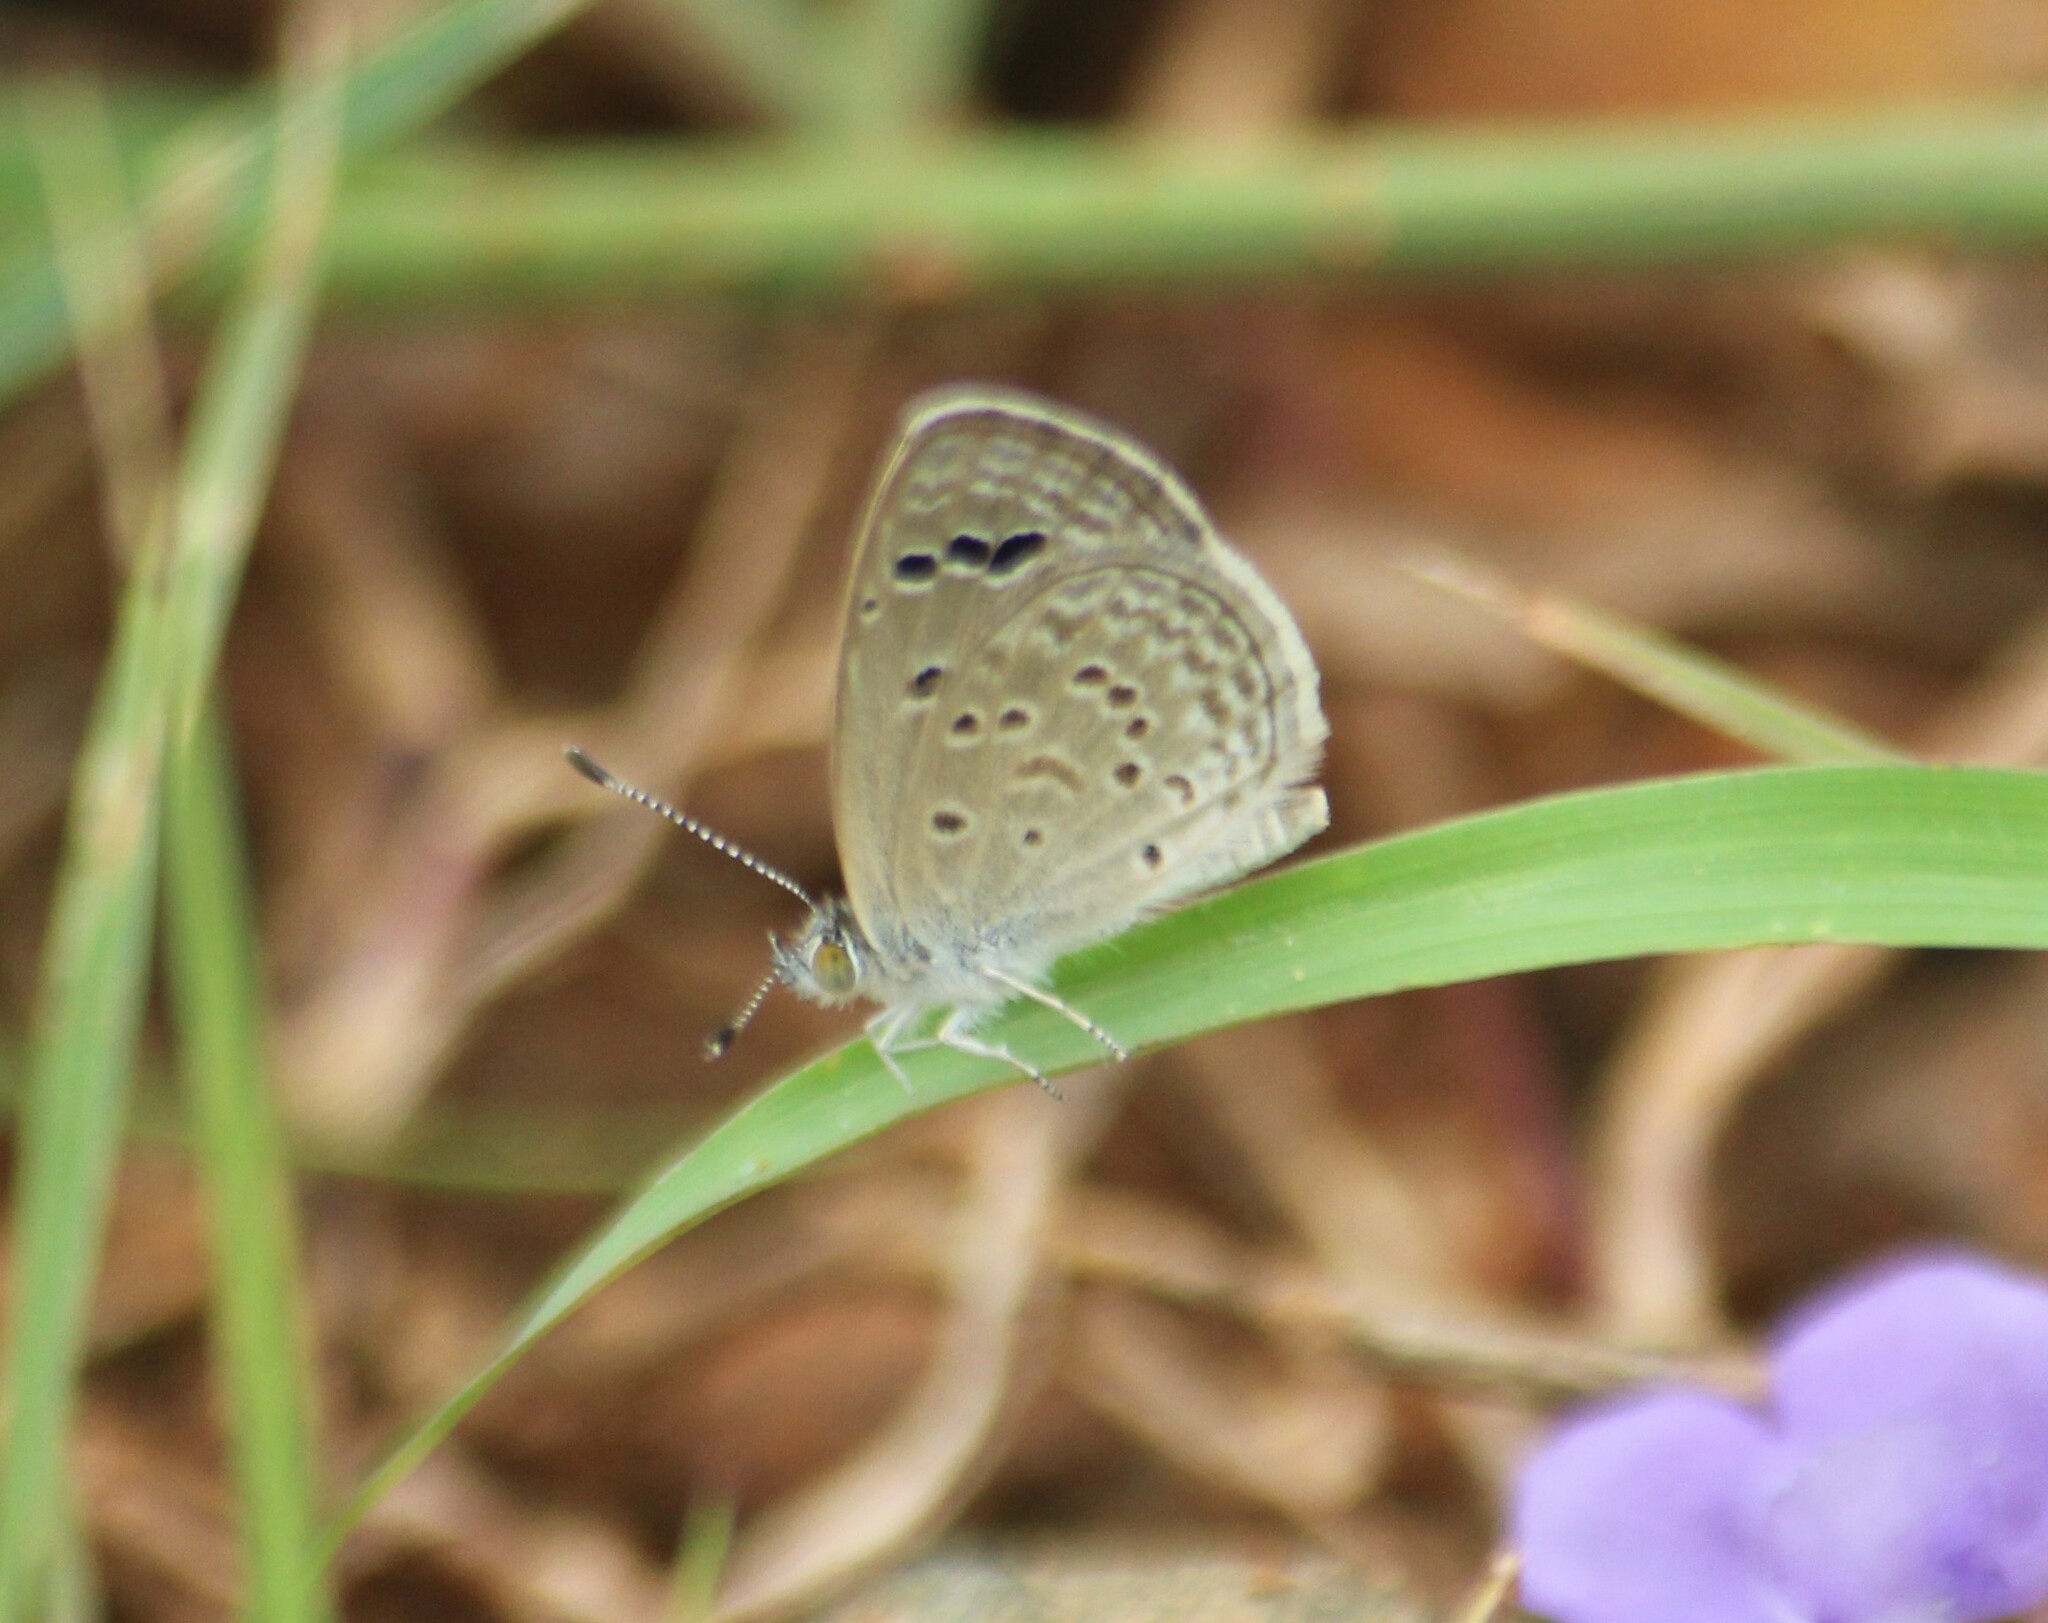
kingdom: Animalia
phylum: Arthropoda
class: Insecta
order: Lepidoptera
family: Lycaenidae
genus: Zizina
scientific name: Zizina otis
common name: Lesser grass blue
